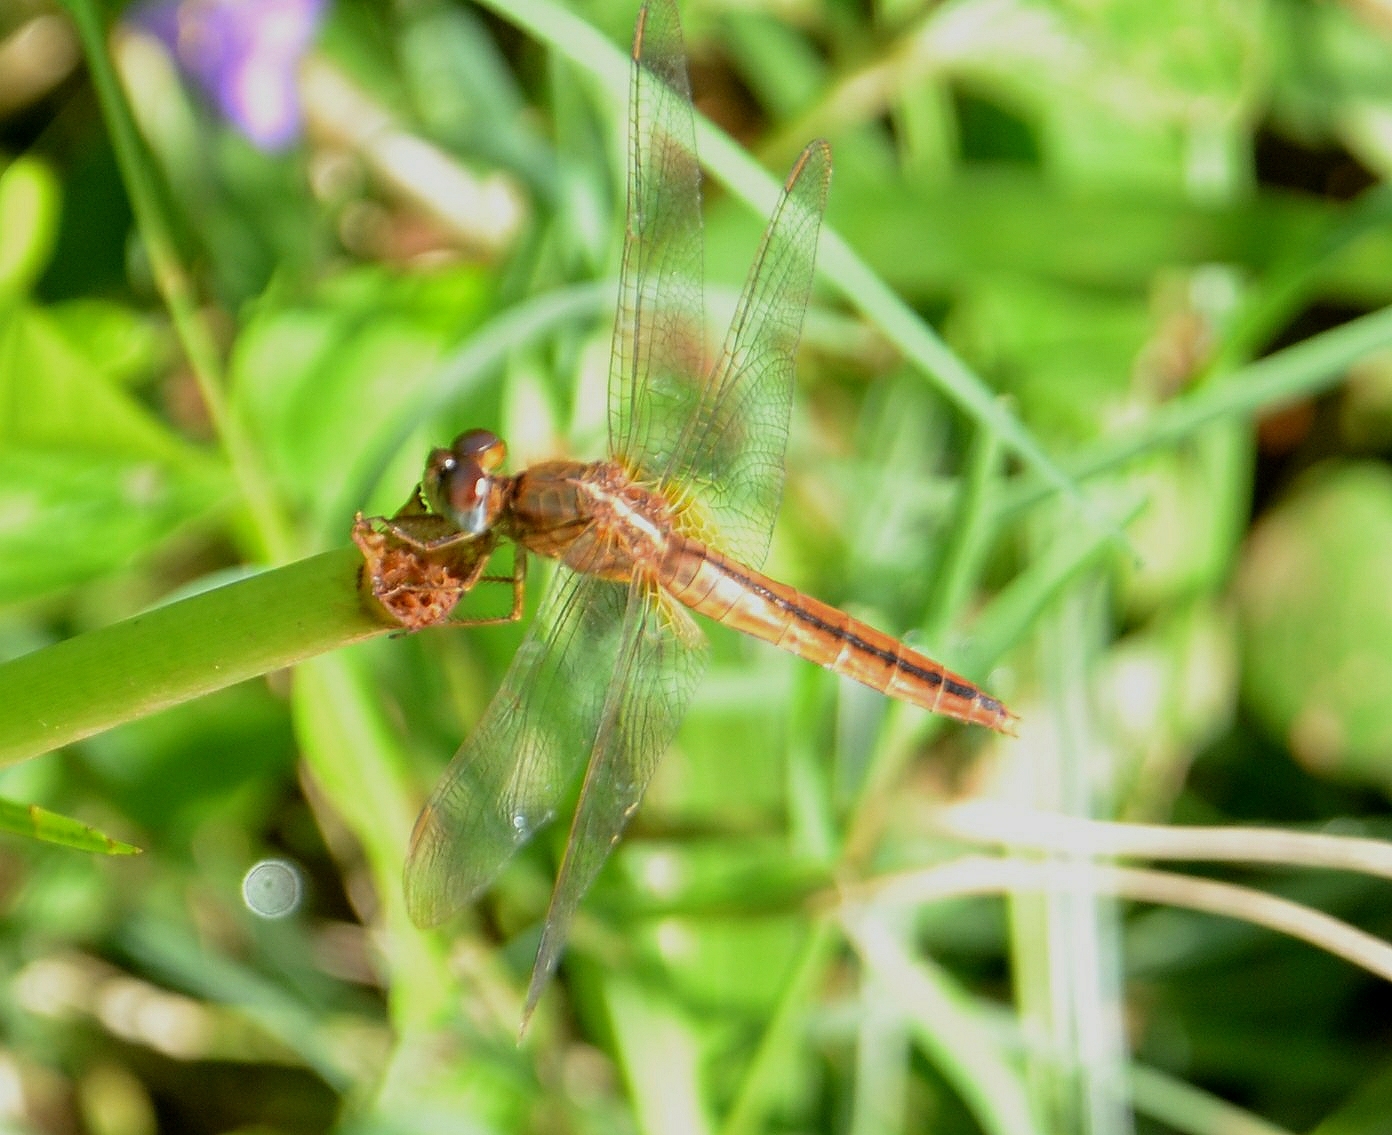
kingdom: Animalia
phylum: Arthropoda
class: Insecta
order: Odonata
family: Libellulidae
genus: Crocothemis
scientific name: Crocothemis servilia
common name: Scarlet skimmer
